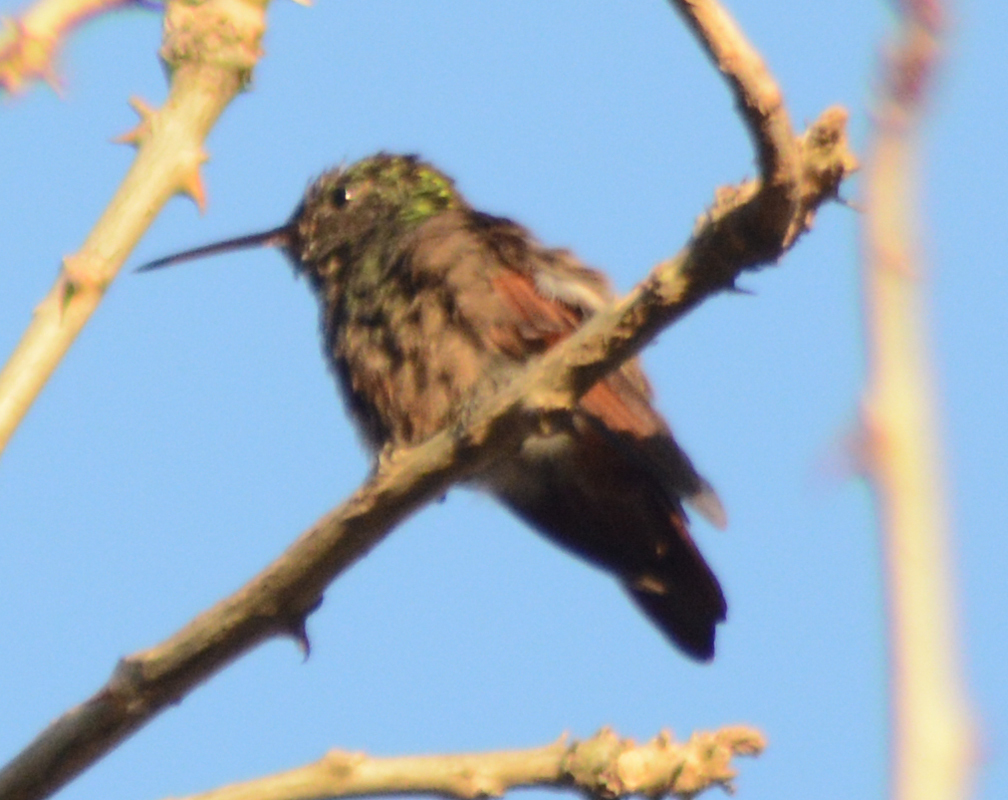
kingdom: Animalia
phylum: Chordata
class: Aves
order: Apodiformes
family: Trochilidae
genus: Saucerottia
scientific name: Saucerottia beryllina
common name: Berylline hummingbird
